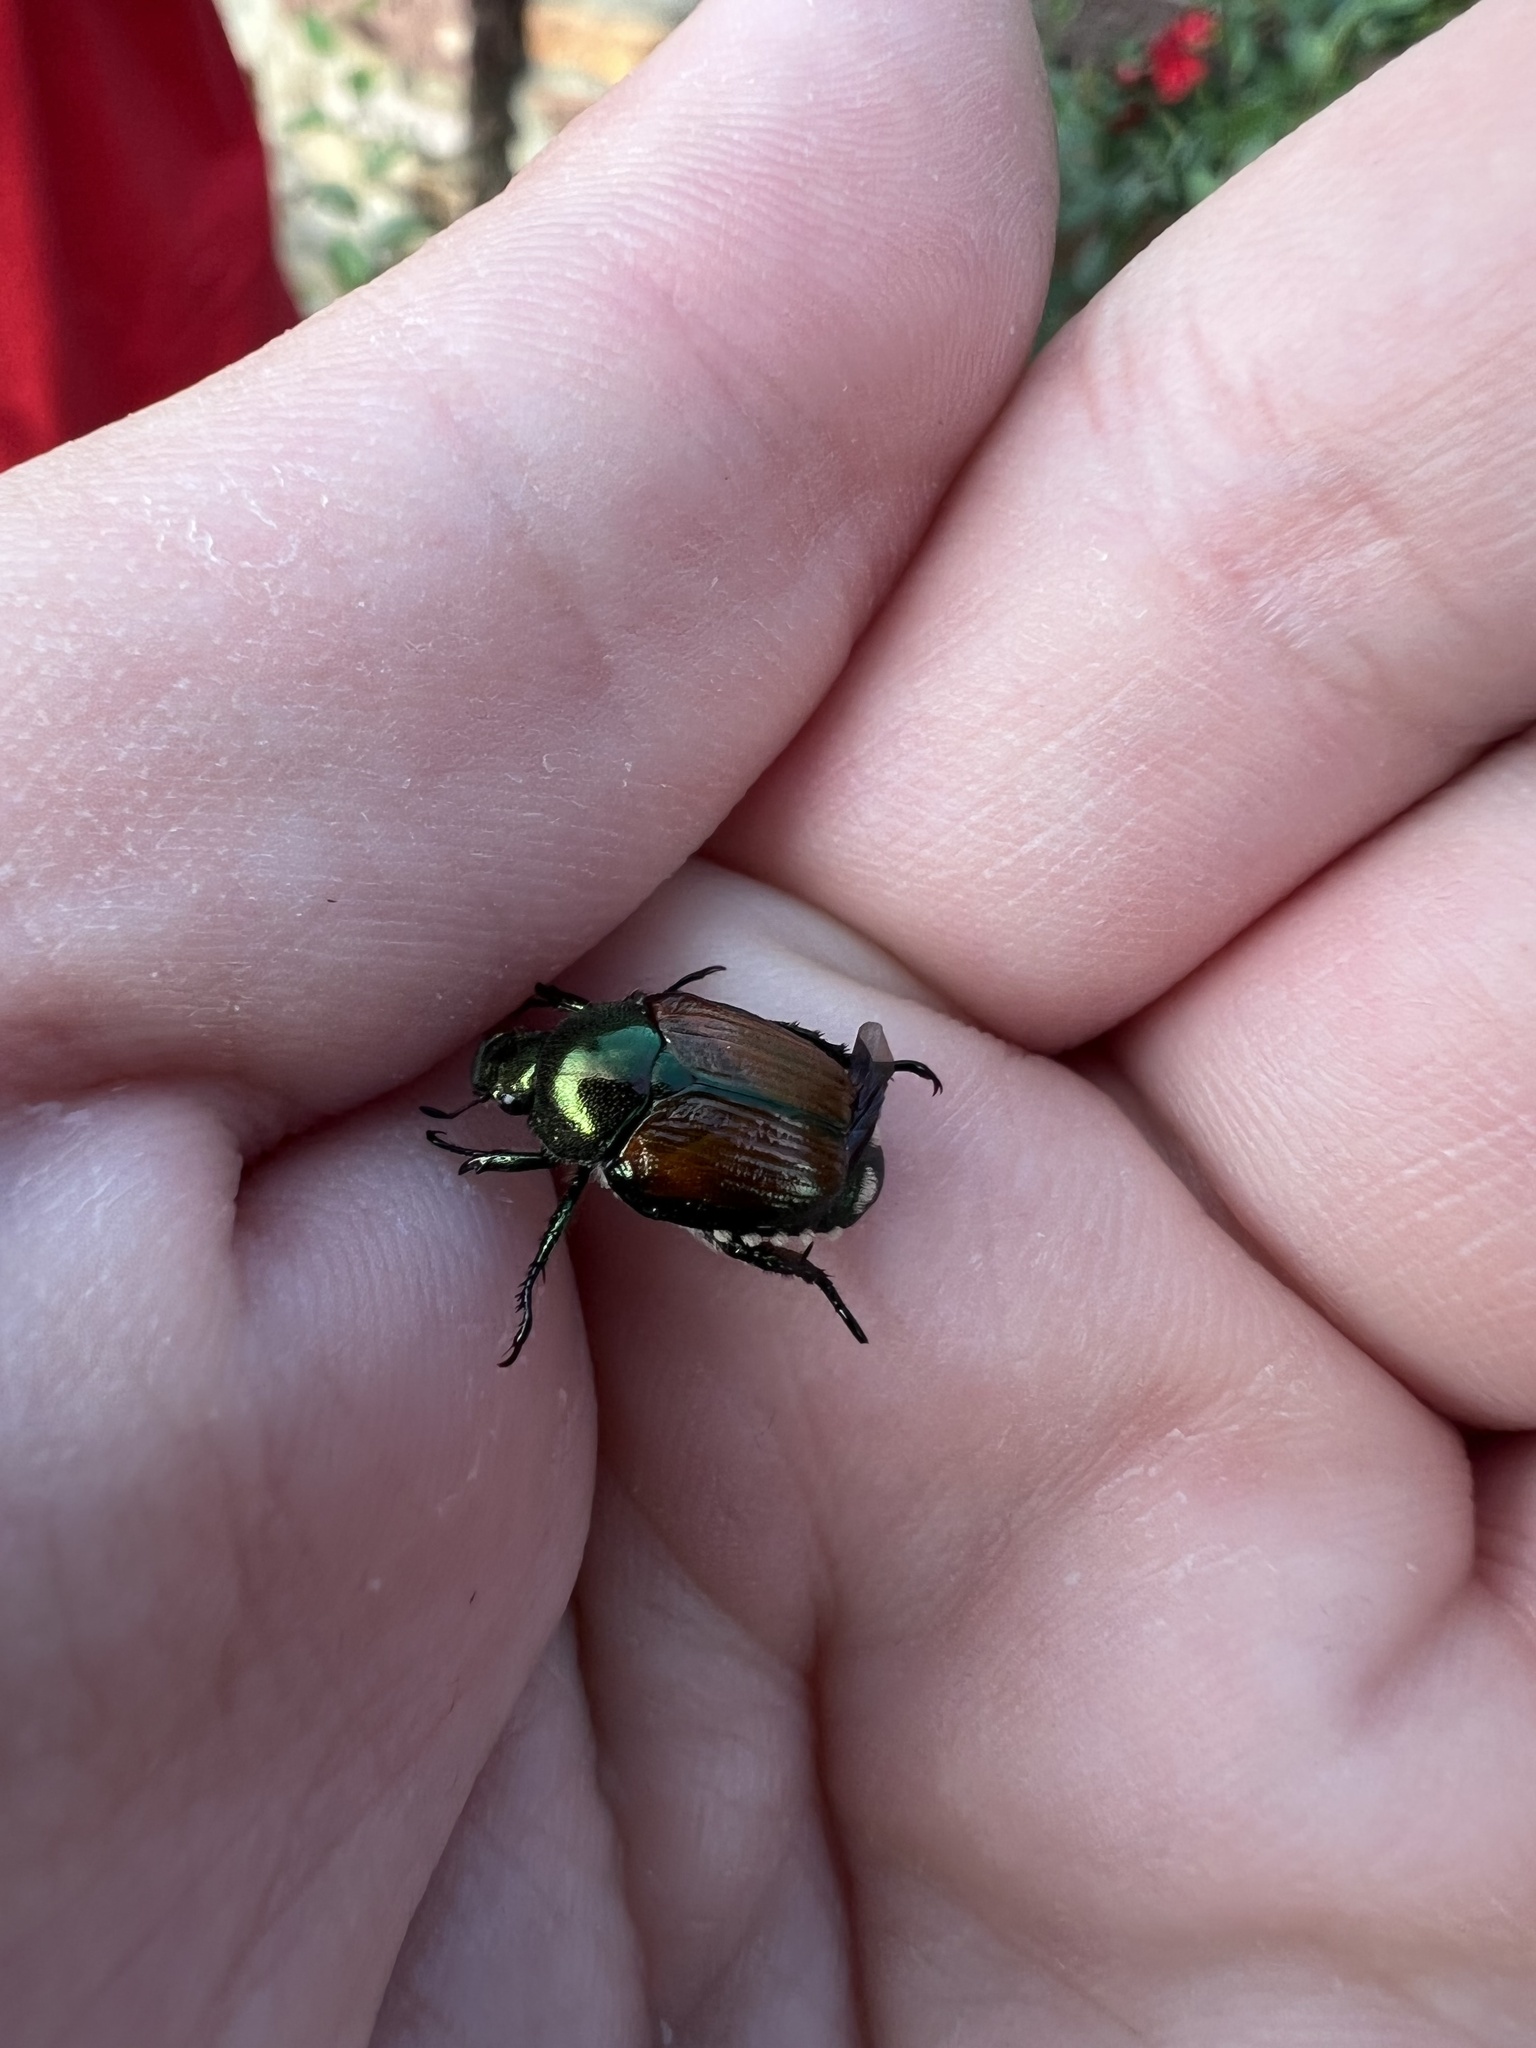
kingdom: Animalia
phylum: Arthropoda
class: Insecta
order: Coleoptera
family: Scarabaeidae
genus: Popillia
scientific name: Popillia japonica
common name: Japanese beetle
